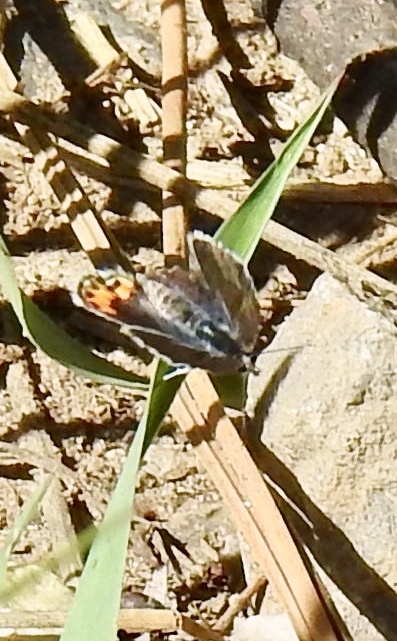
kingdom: Animalia
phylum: Arthropoda
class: Insecta
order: Lepidoptera
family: Lycaenidae
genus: Icaricia
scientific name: Icaricia lupini
